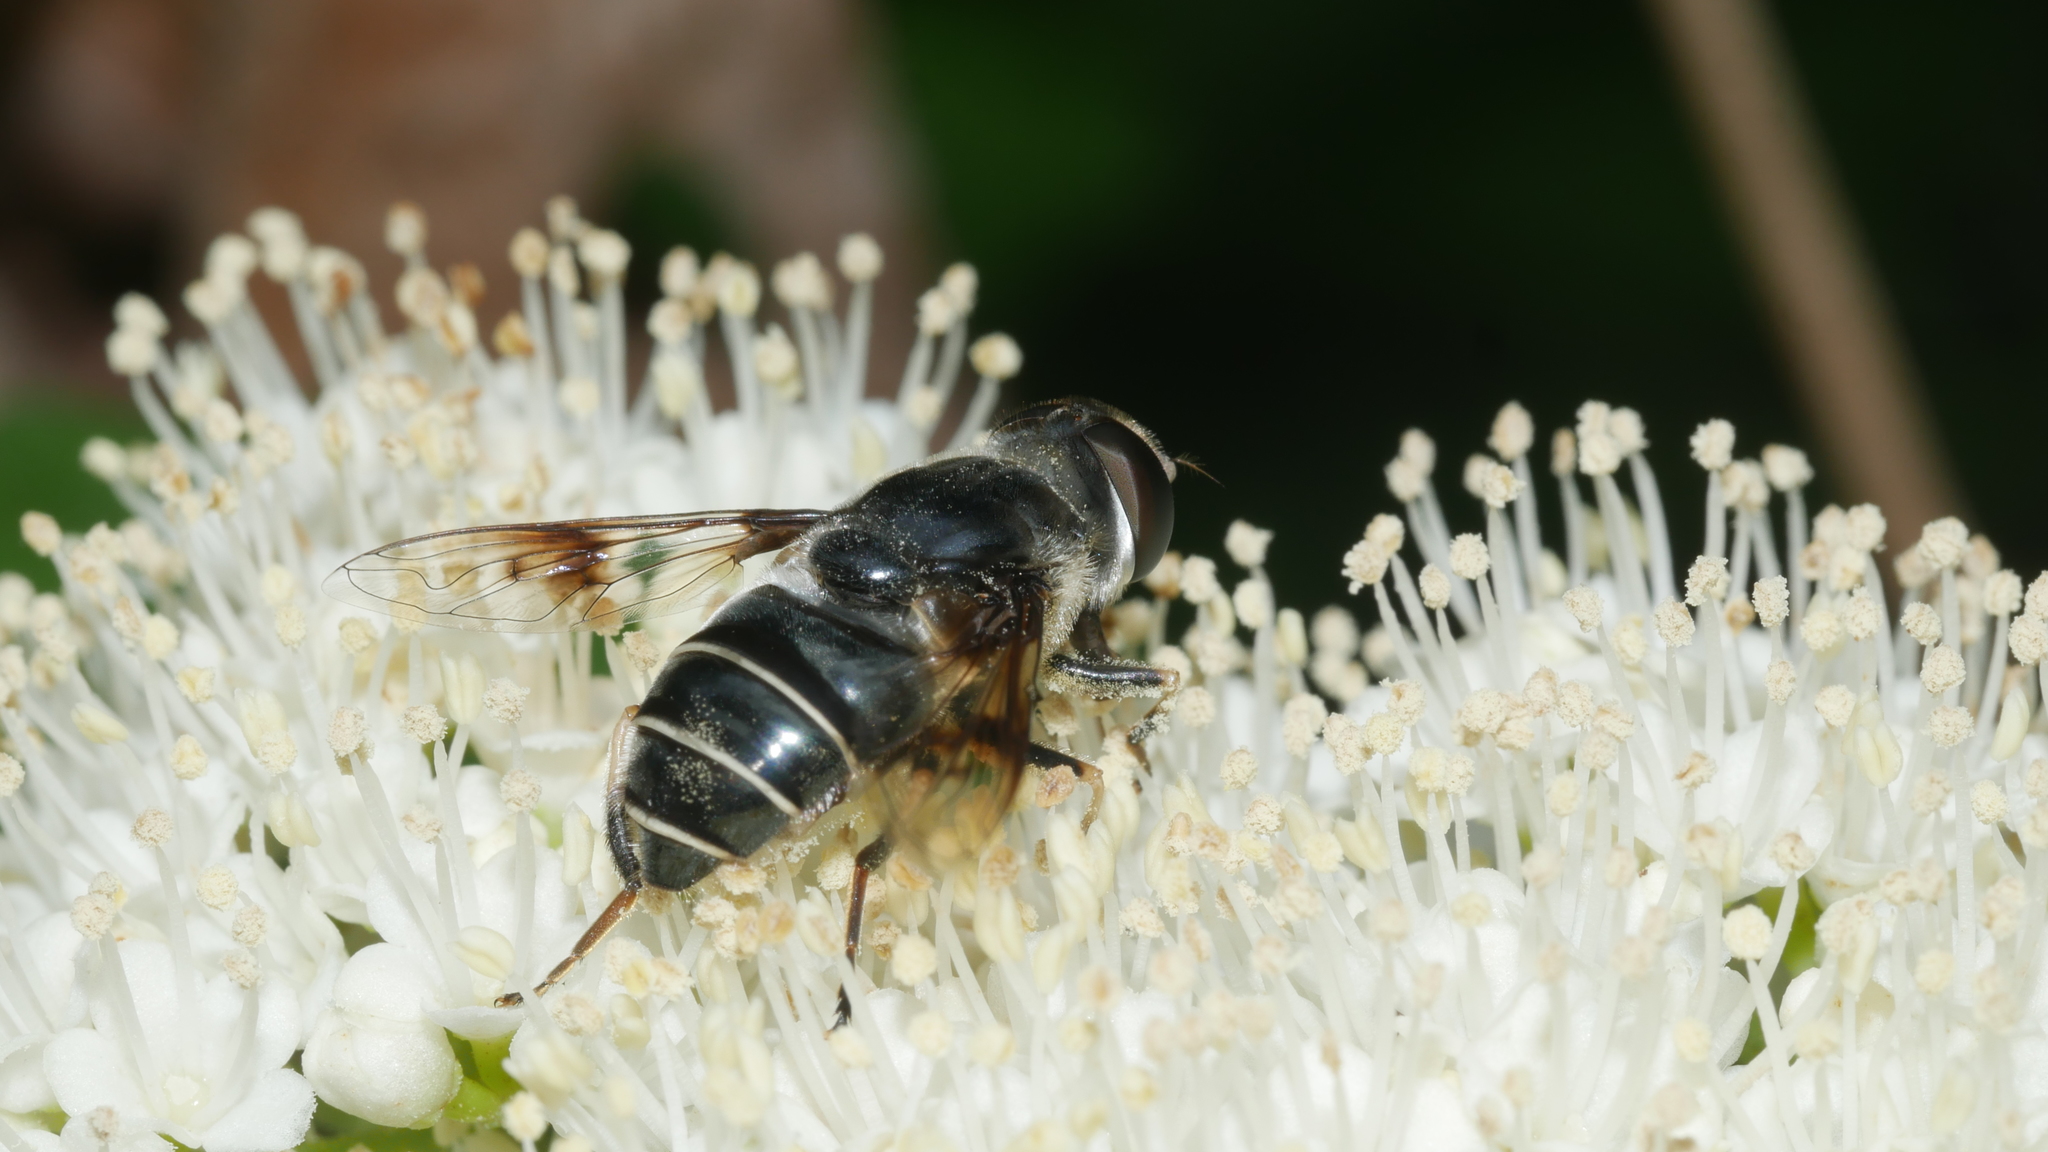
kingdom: Animalia
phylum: Arthropoda
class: Insecta
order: Diptera
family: Syrphidae
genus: Eristalis
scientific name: Eristalis saxorum
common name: Blue-polished drone fly
